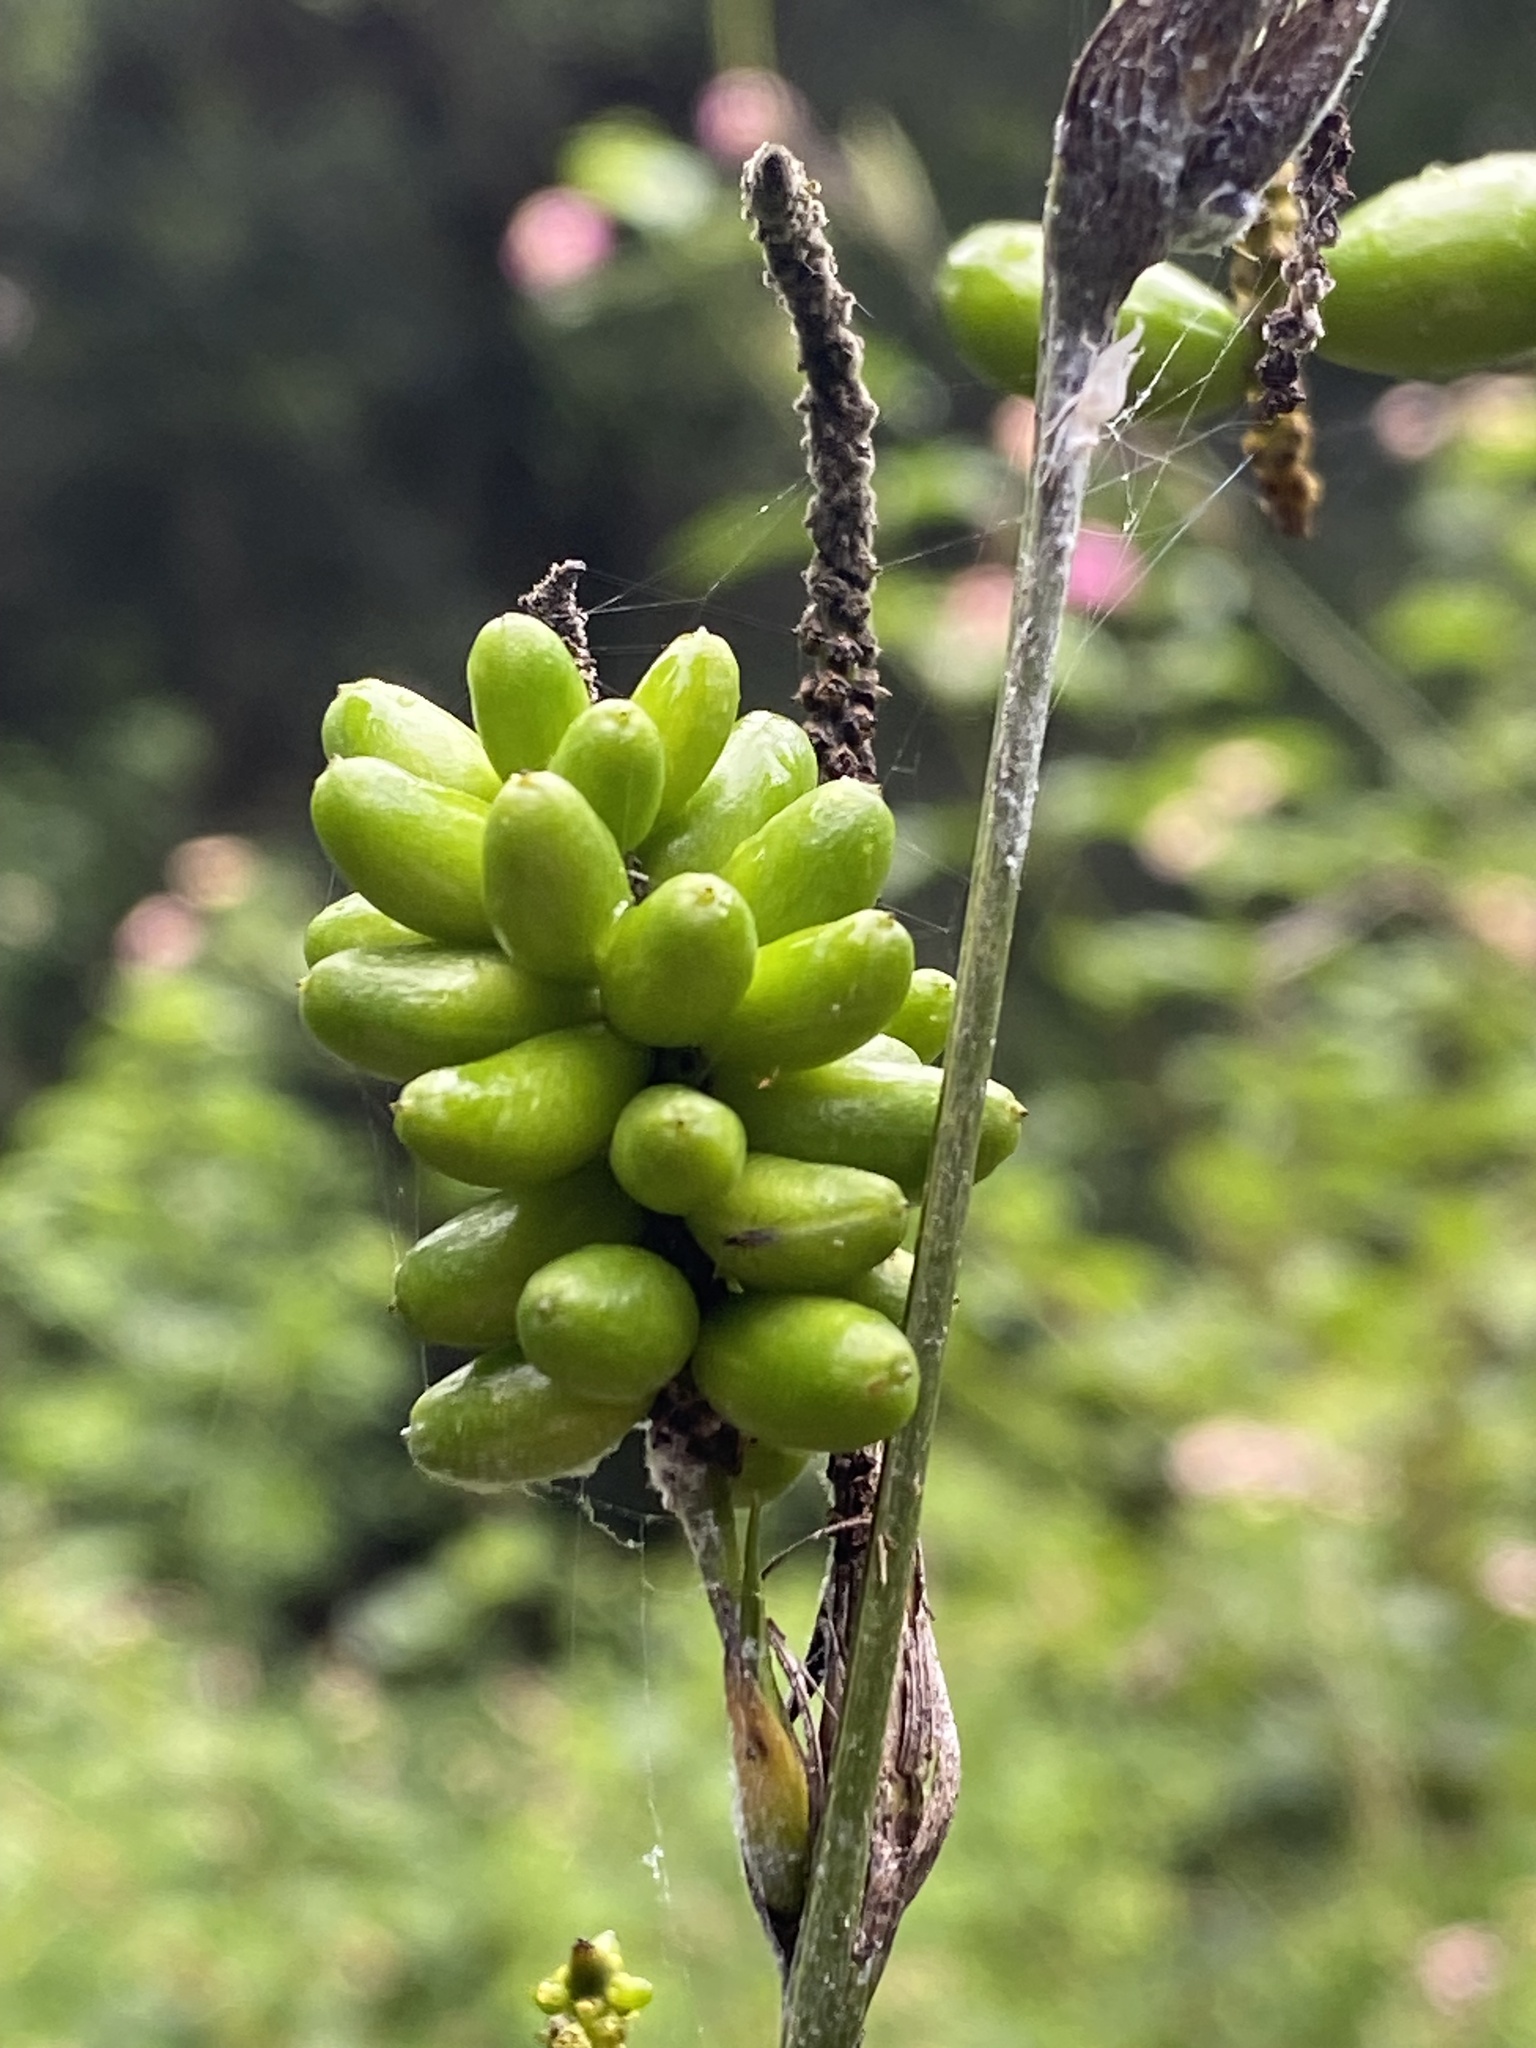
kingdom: Plantae
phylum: Tracheophyta
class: Liliopsida
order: Alismatales
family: Araceae
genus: Gymnostachys
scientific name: Gymnostachys anceps
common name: Settler's-flax
